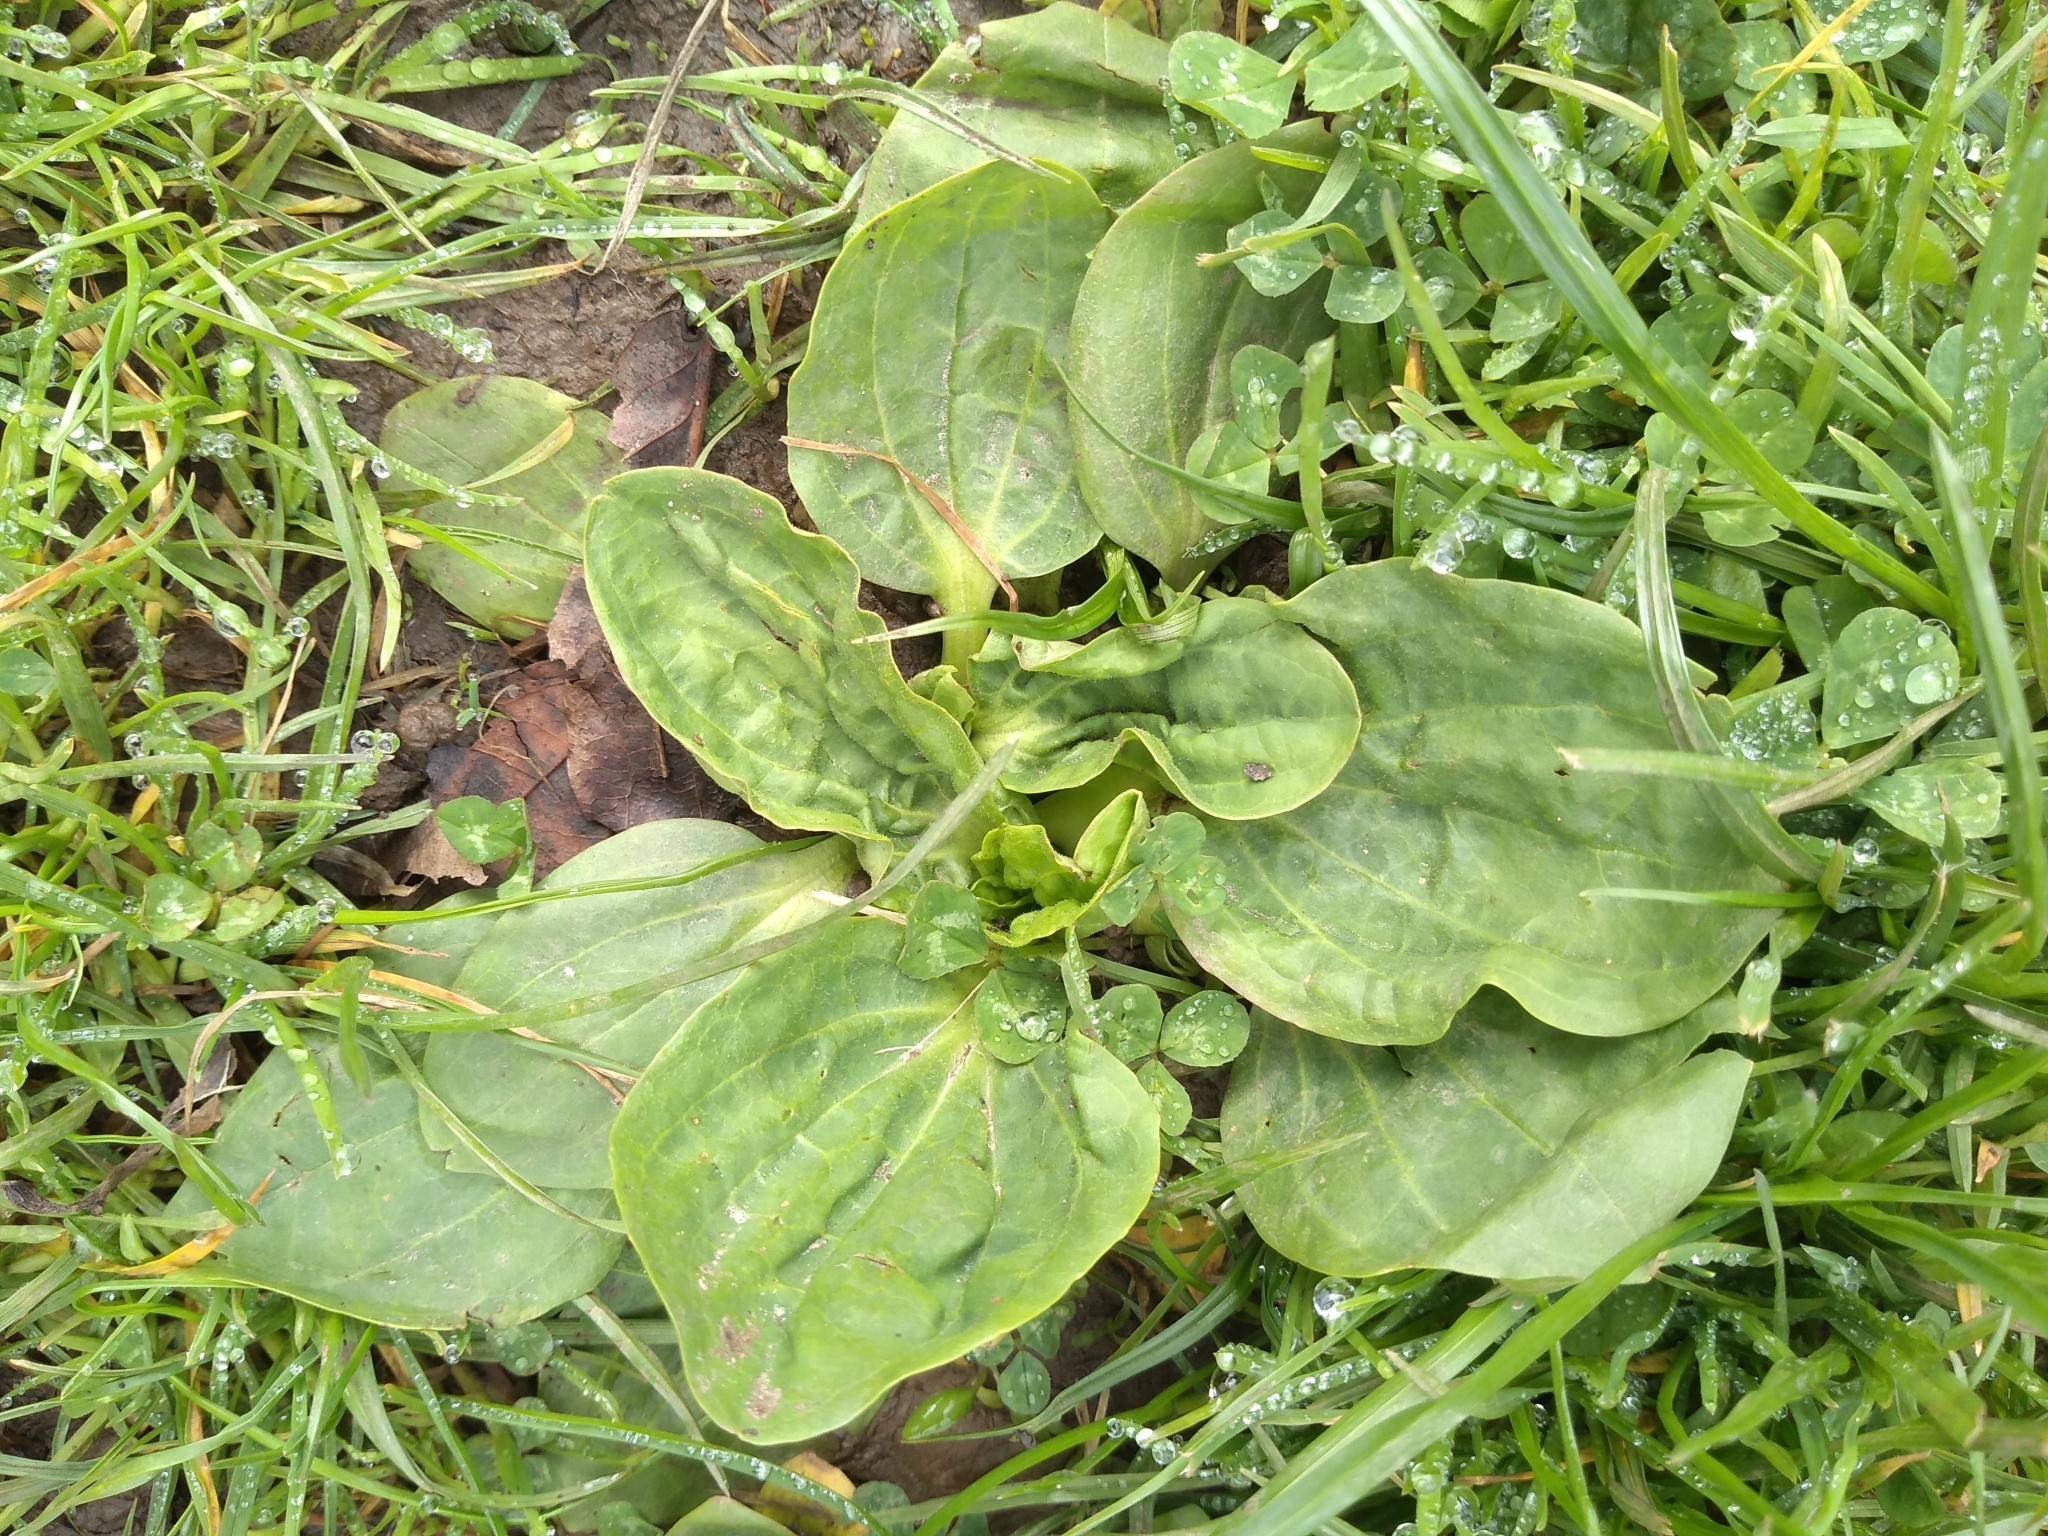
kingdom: Plantae
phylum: Tracheophyta
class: Magnoliopsida
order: Lamiales
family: Plantaginaceae
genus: Plantago
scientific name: Plantago major
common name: Common plantain
